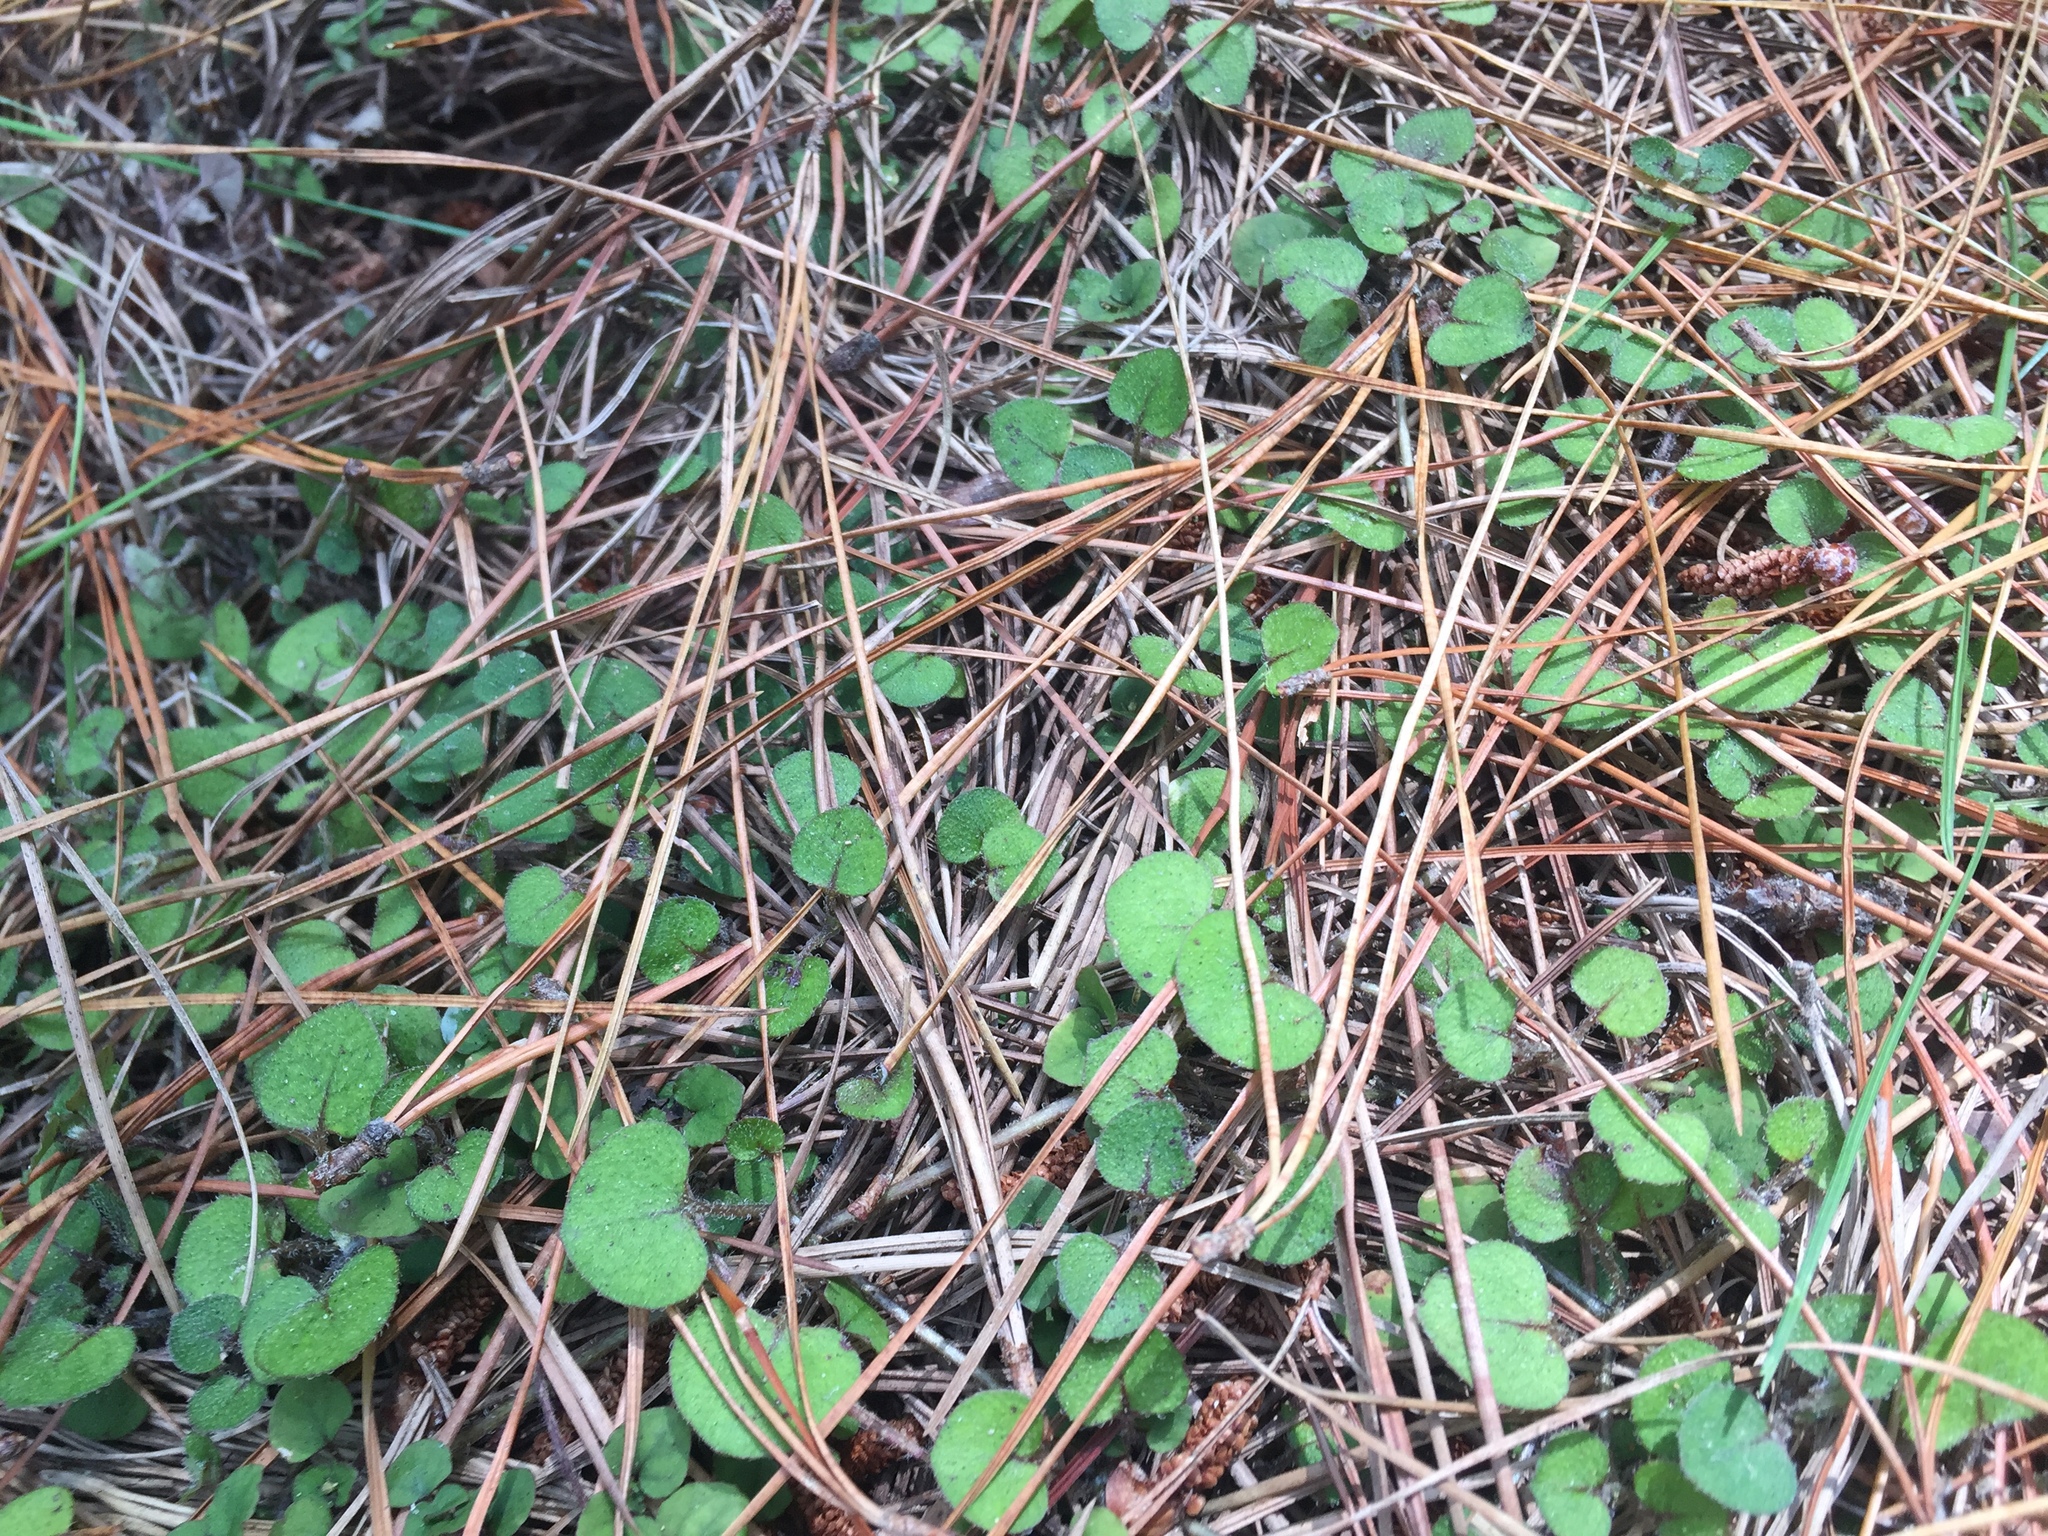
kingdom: Plantae
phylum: Tracheophyta
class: Magnoliopsida
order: Gentianales
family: Rubiaceae
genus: Nertera
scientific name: Nertera dichondrifolia
